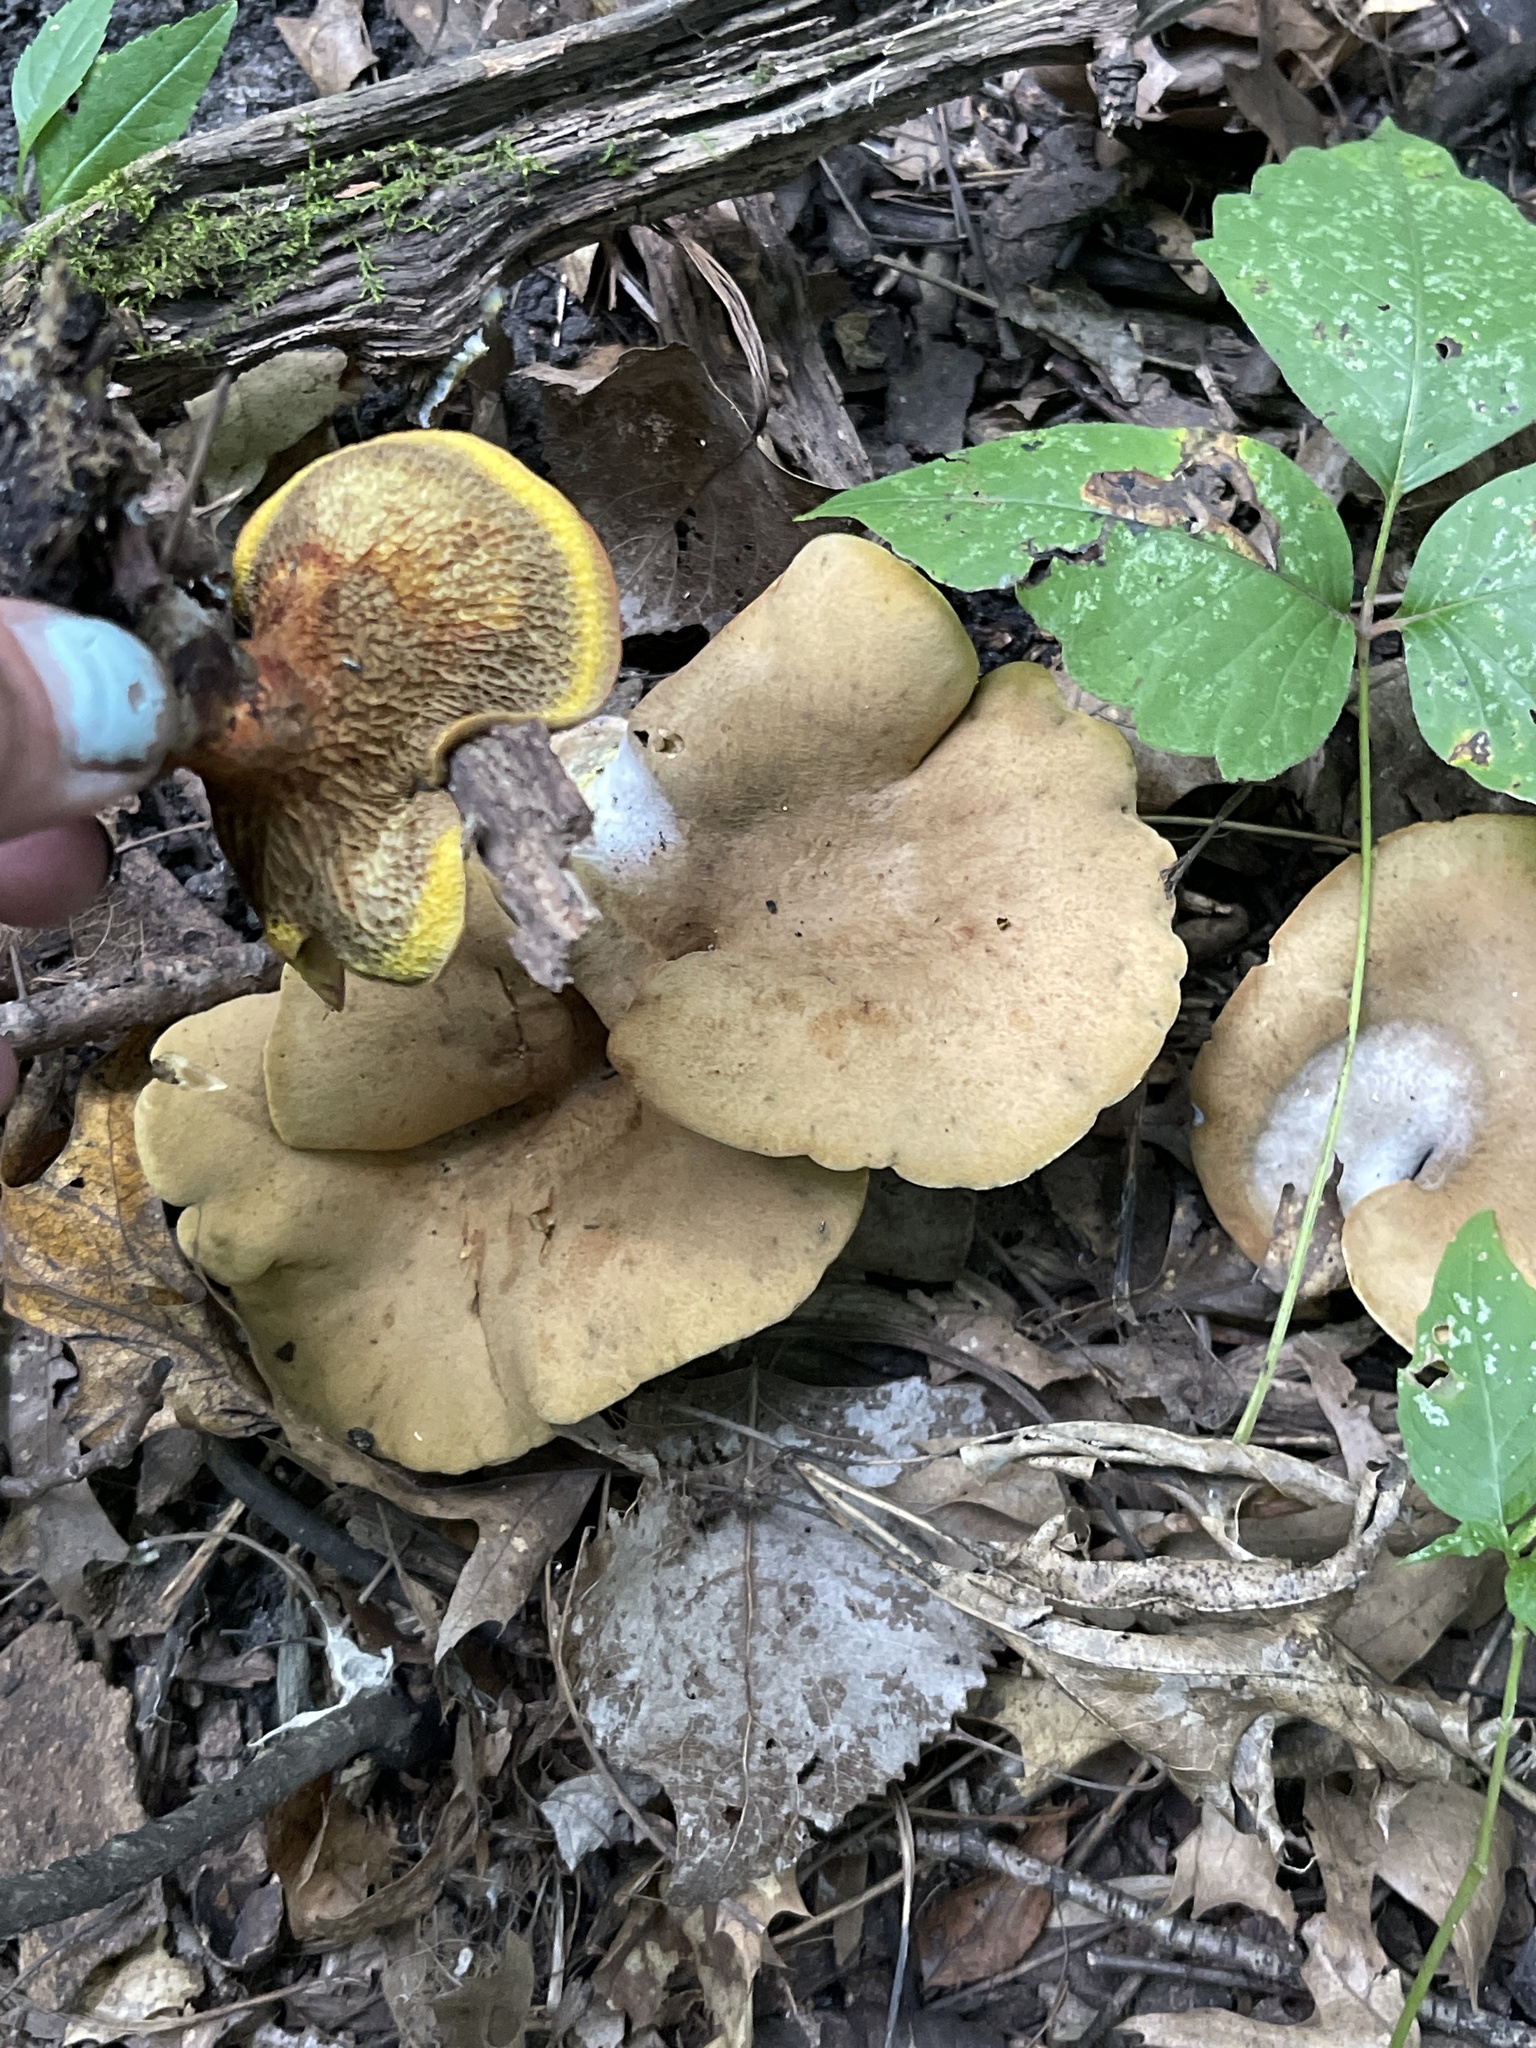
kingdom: Fungi
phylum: Basidiomycota
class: Agaricomycetes
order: Boletales
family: Boletinellaceae
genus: Boletinellus
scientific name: Boletinellus merulioides
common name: Ash tree bolete
